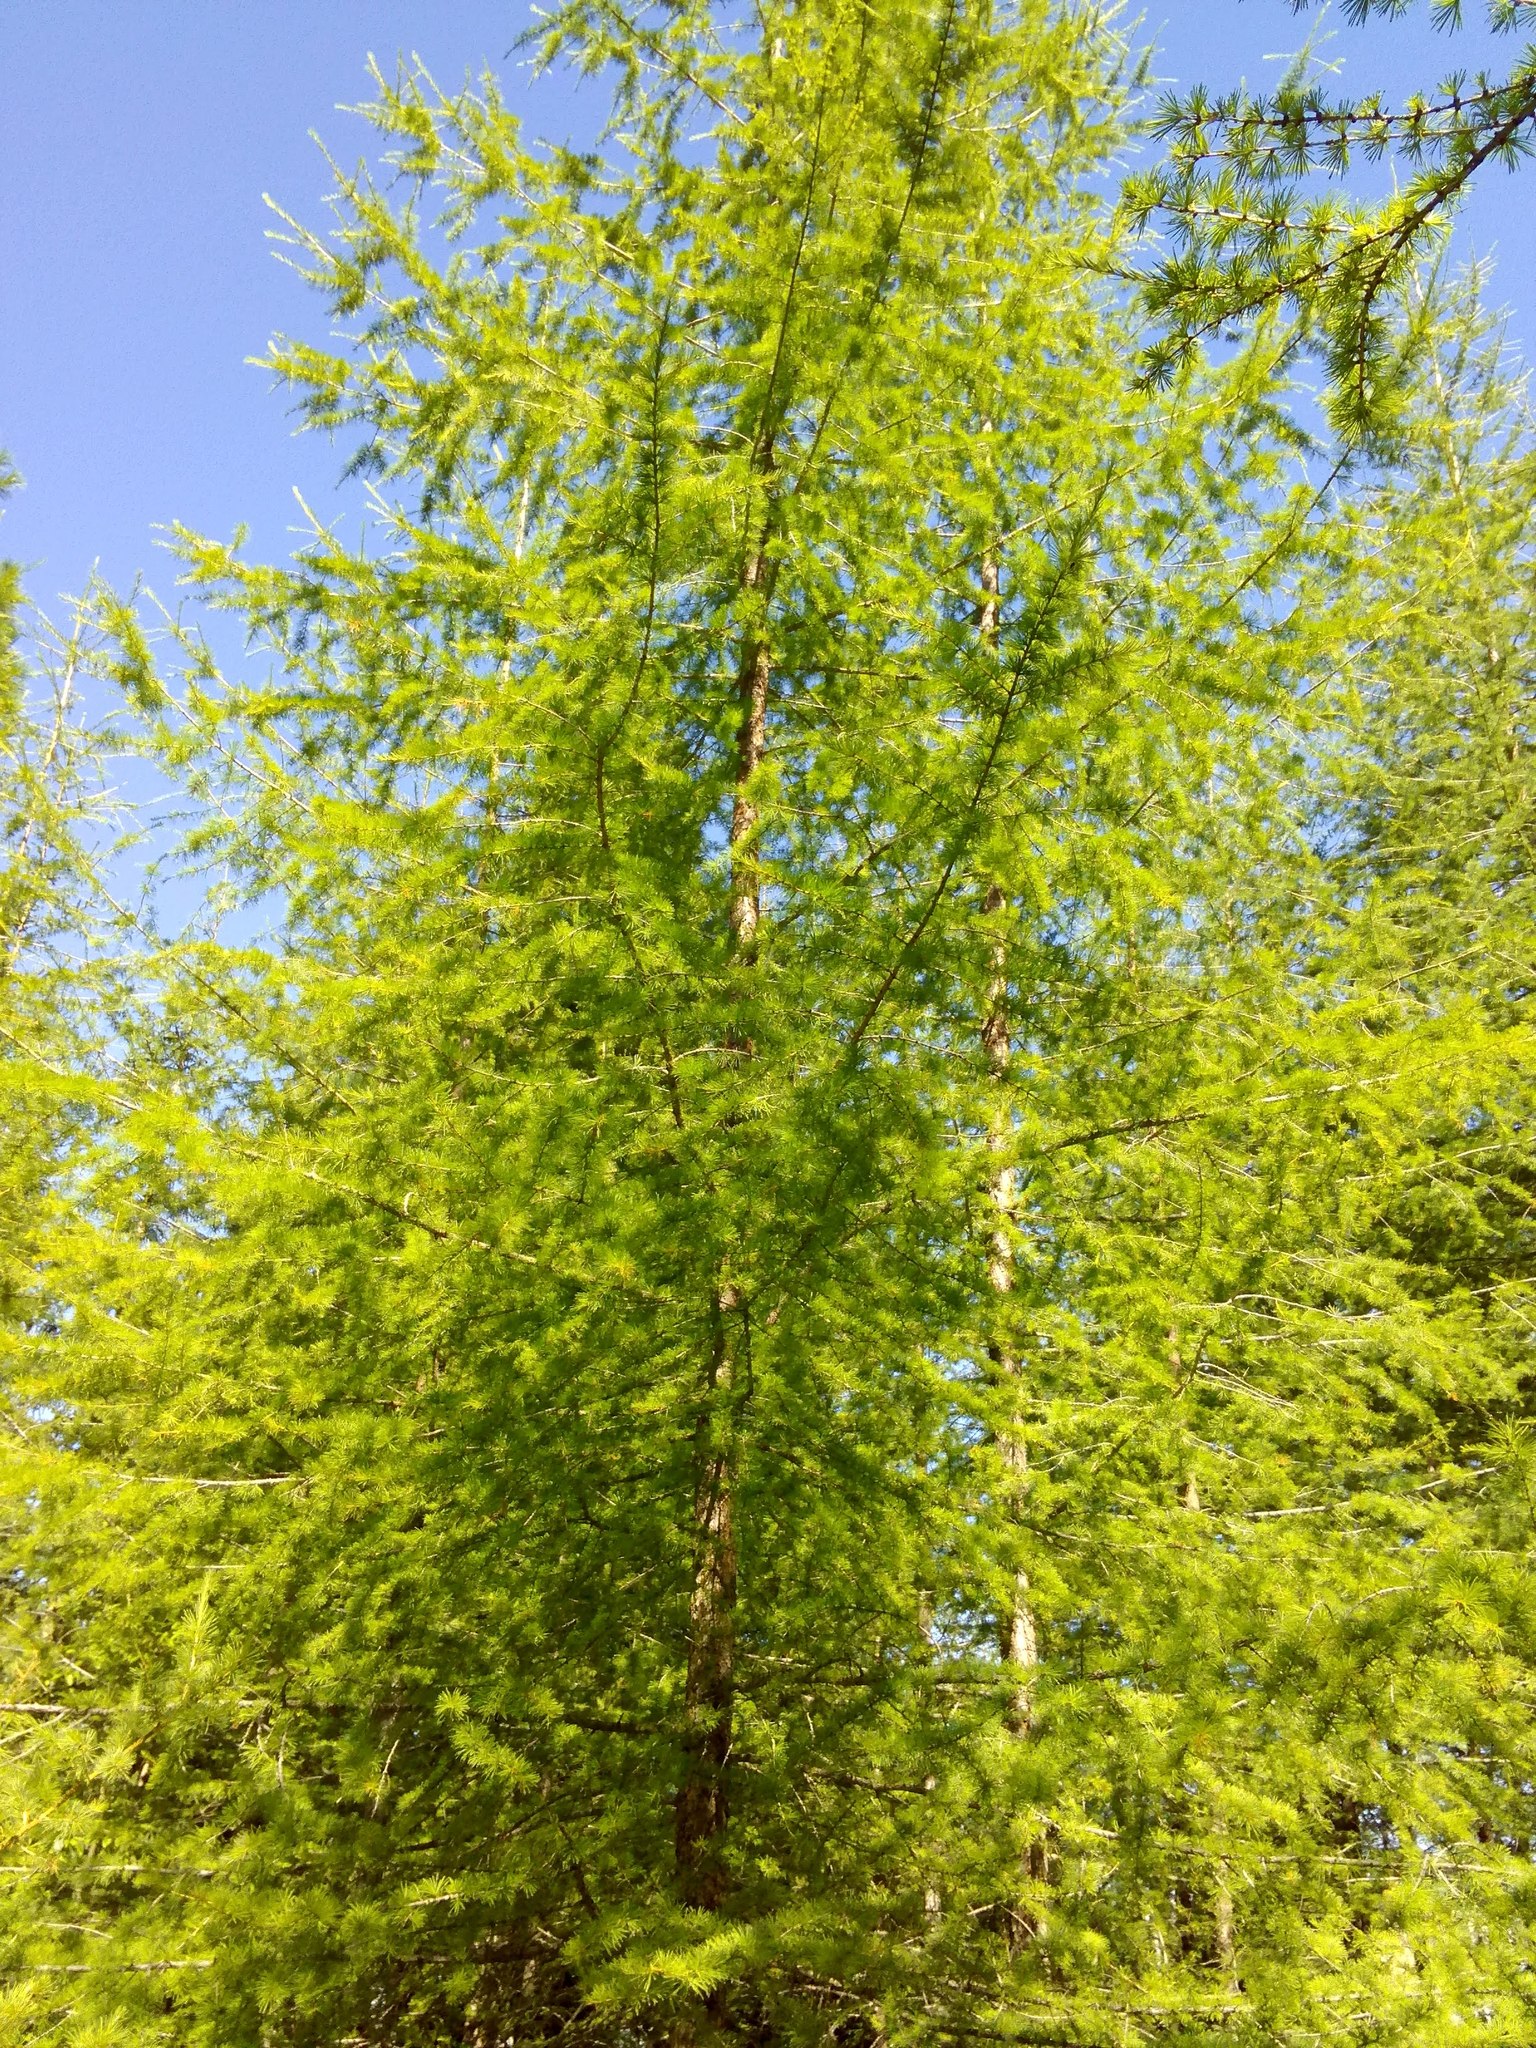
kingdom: Plantae
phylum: Tracheophyta
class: Pinopsida
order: Pinales
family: Pinaceae
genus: Larix
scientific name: Larix sibirica
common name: Siberian larch
